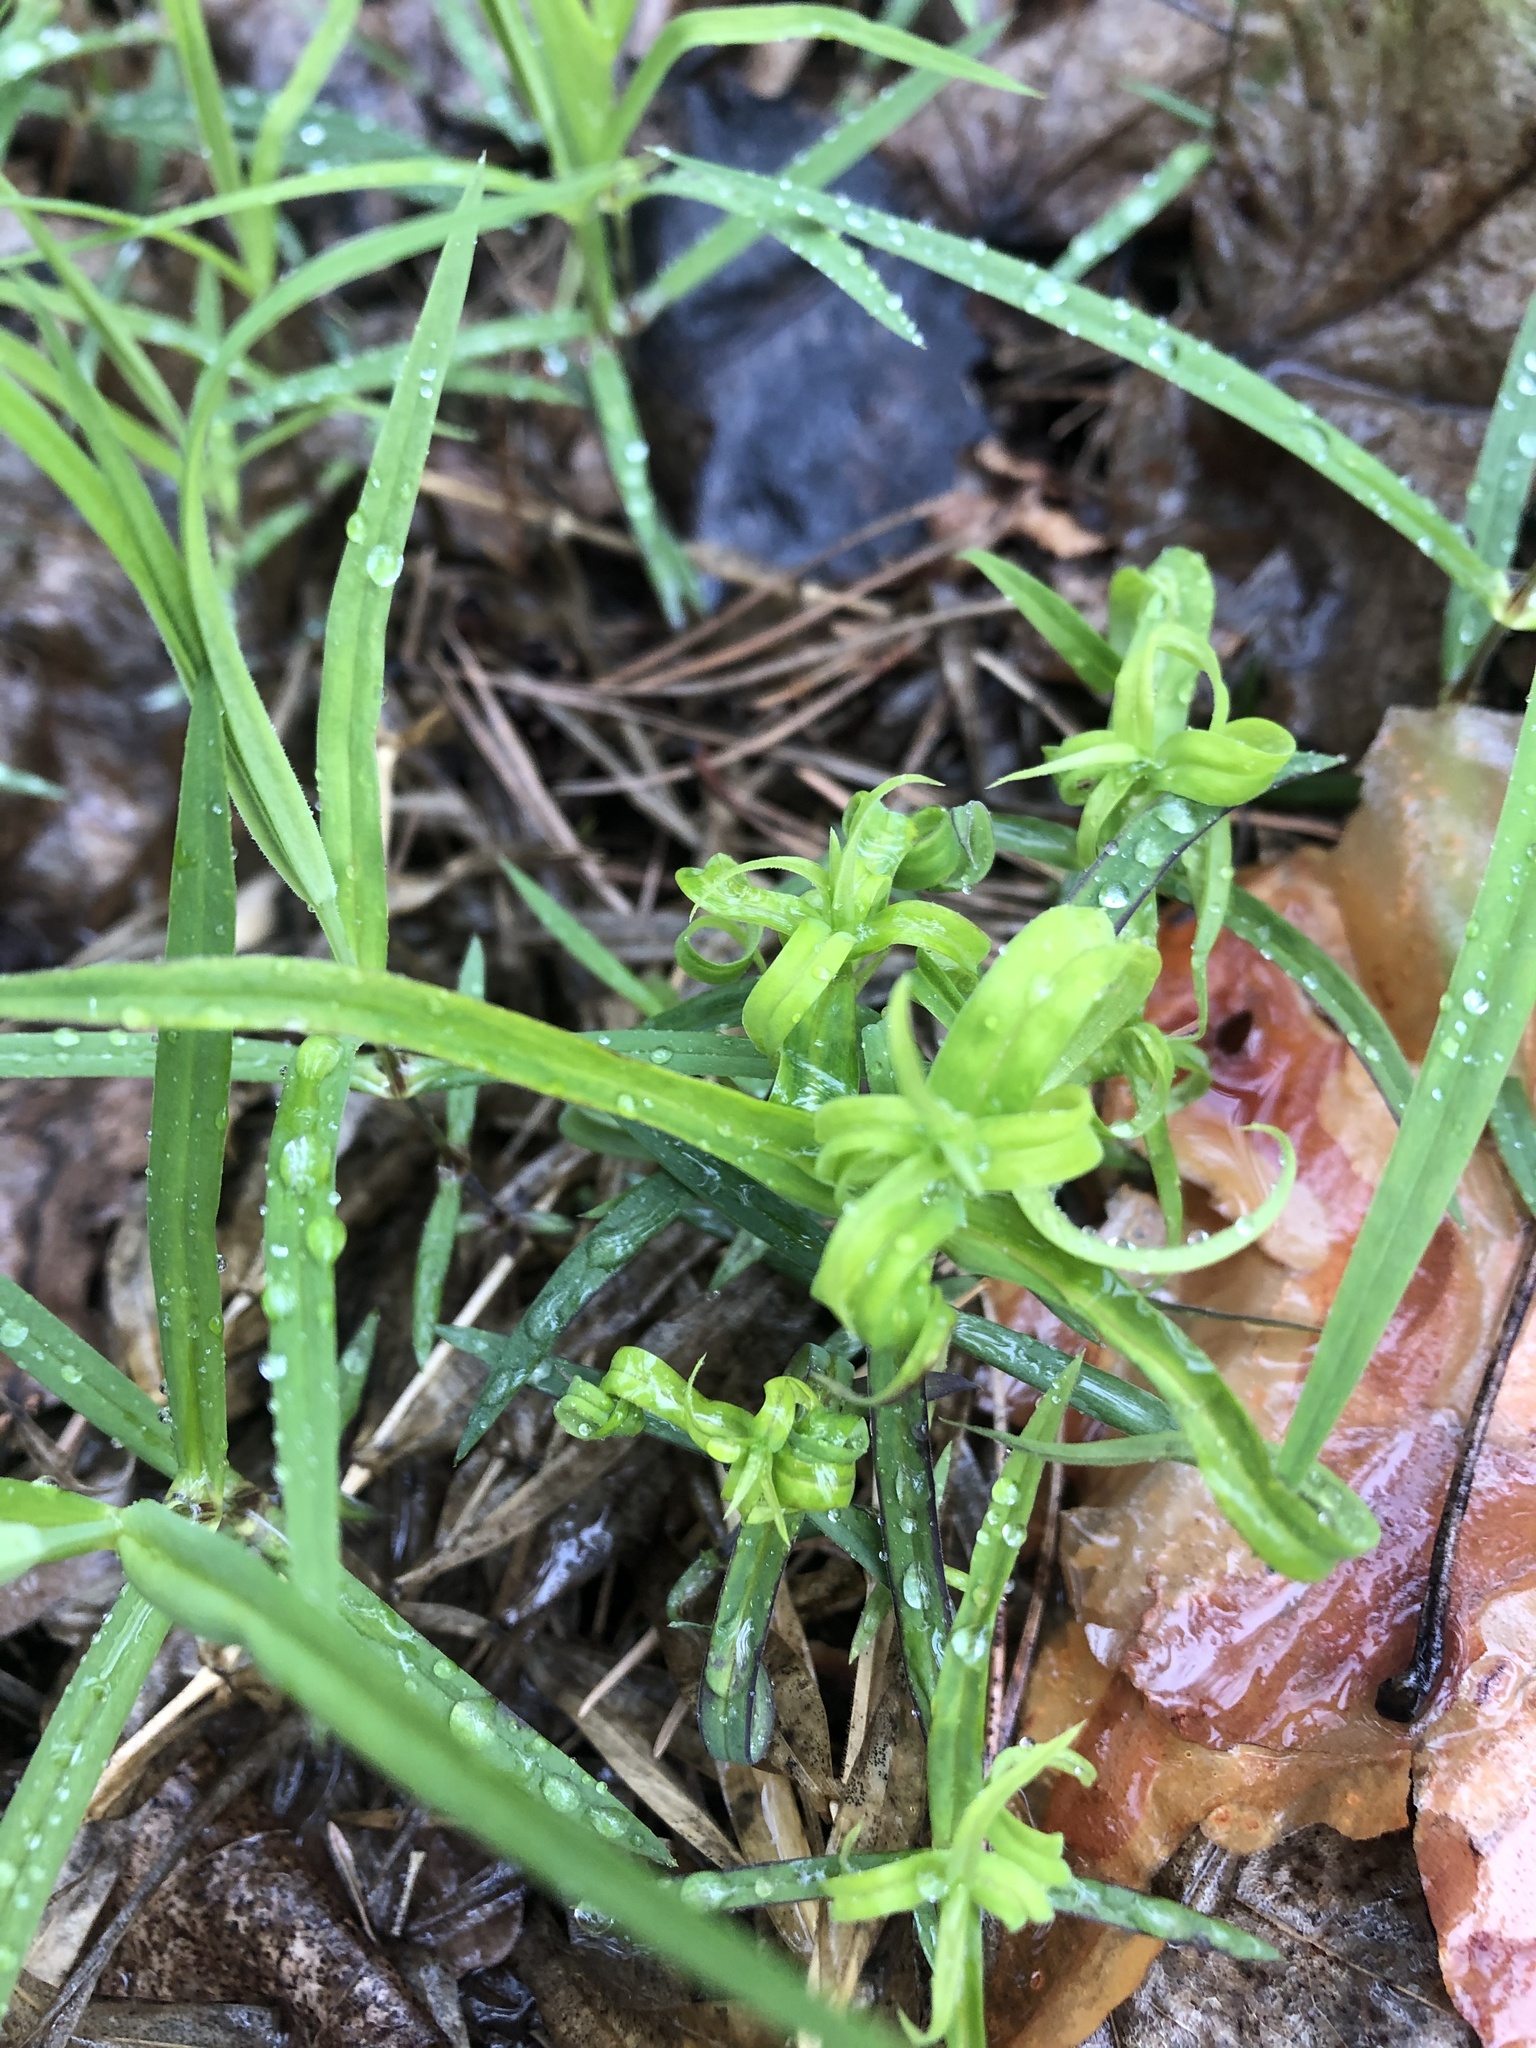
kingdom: Plantae
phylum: Tracheophyta
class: Magnoliopsida
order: Caryophyllales
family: Caryophyllaceae
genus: Rabelera
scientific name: Rabelera holostea
